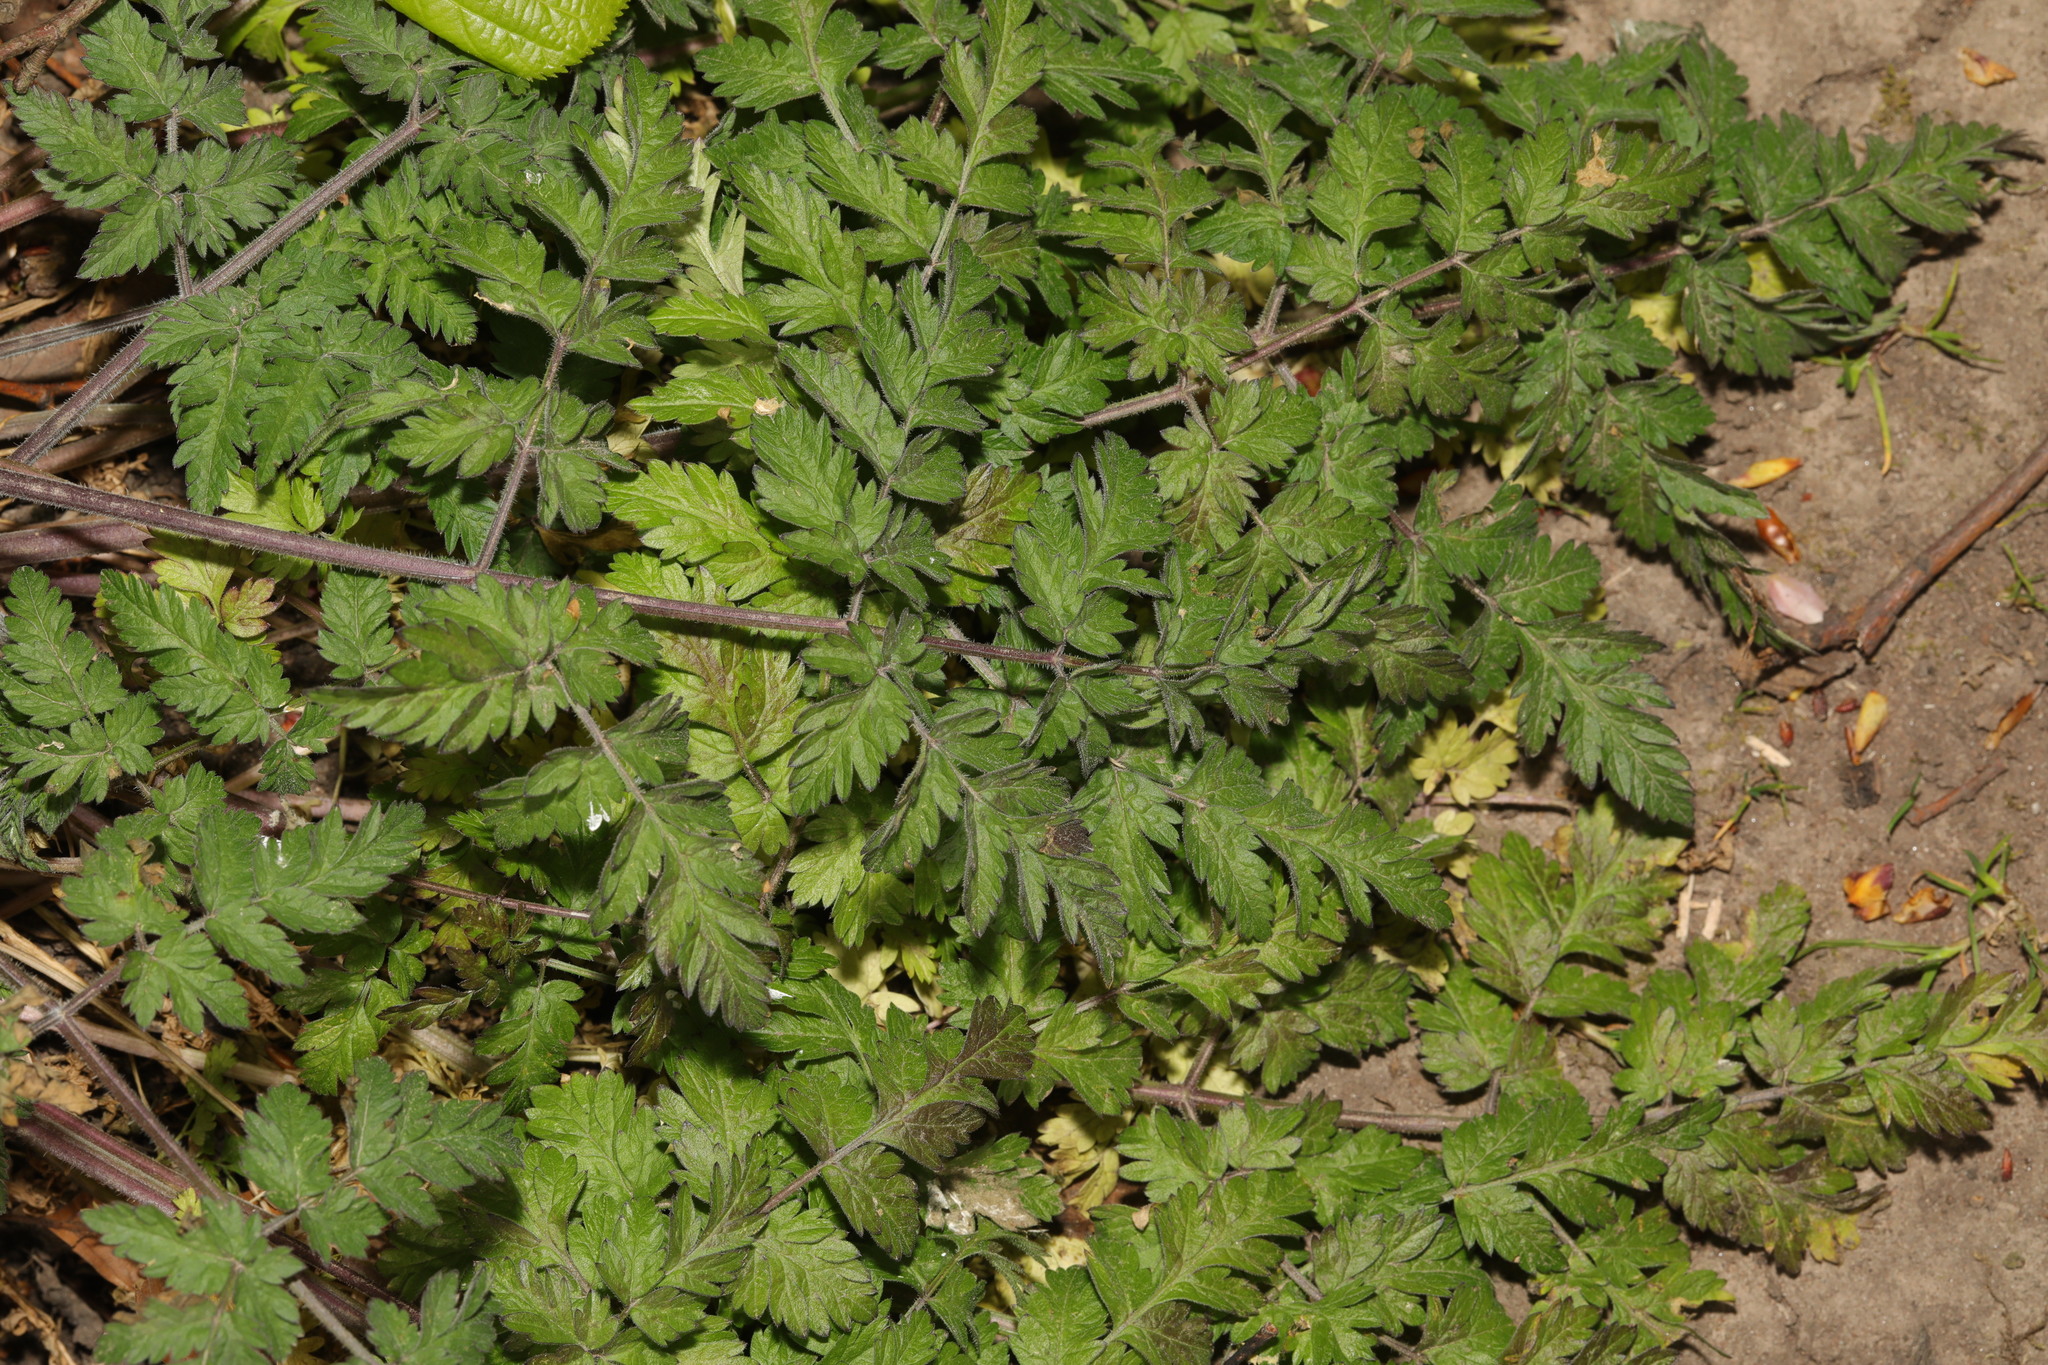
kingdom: Plantae
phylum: Tracheophyta
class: Magnoliopsida
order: Apiales
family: Apiaceae
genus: Anthriscus
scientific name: Anthriscus sylvestris
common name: Cow parsley
